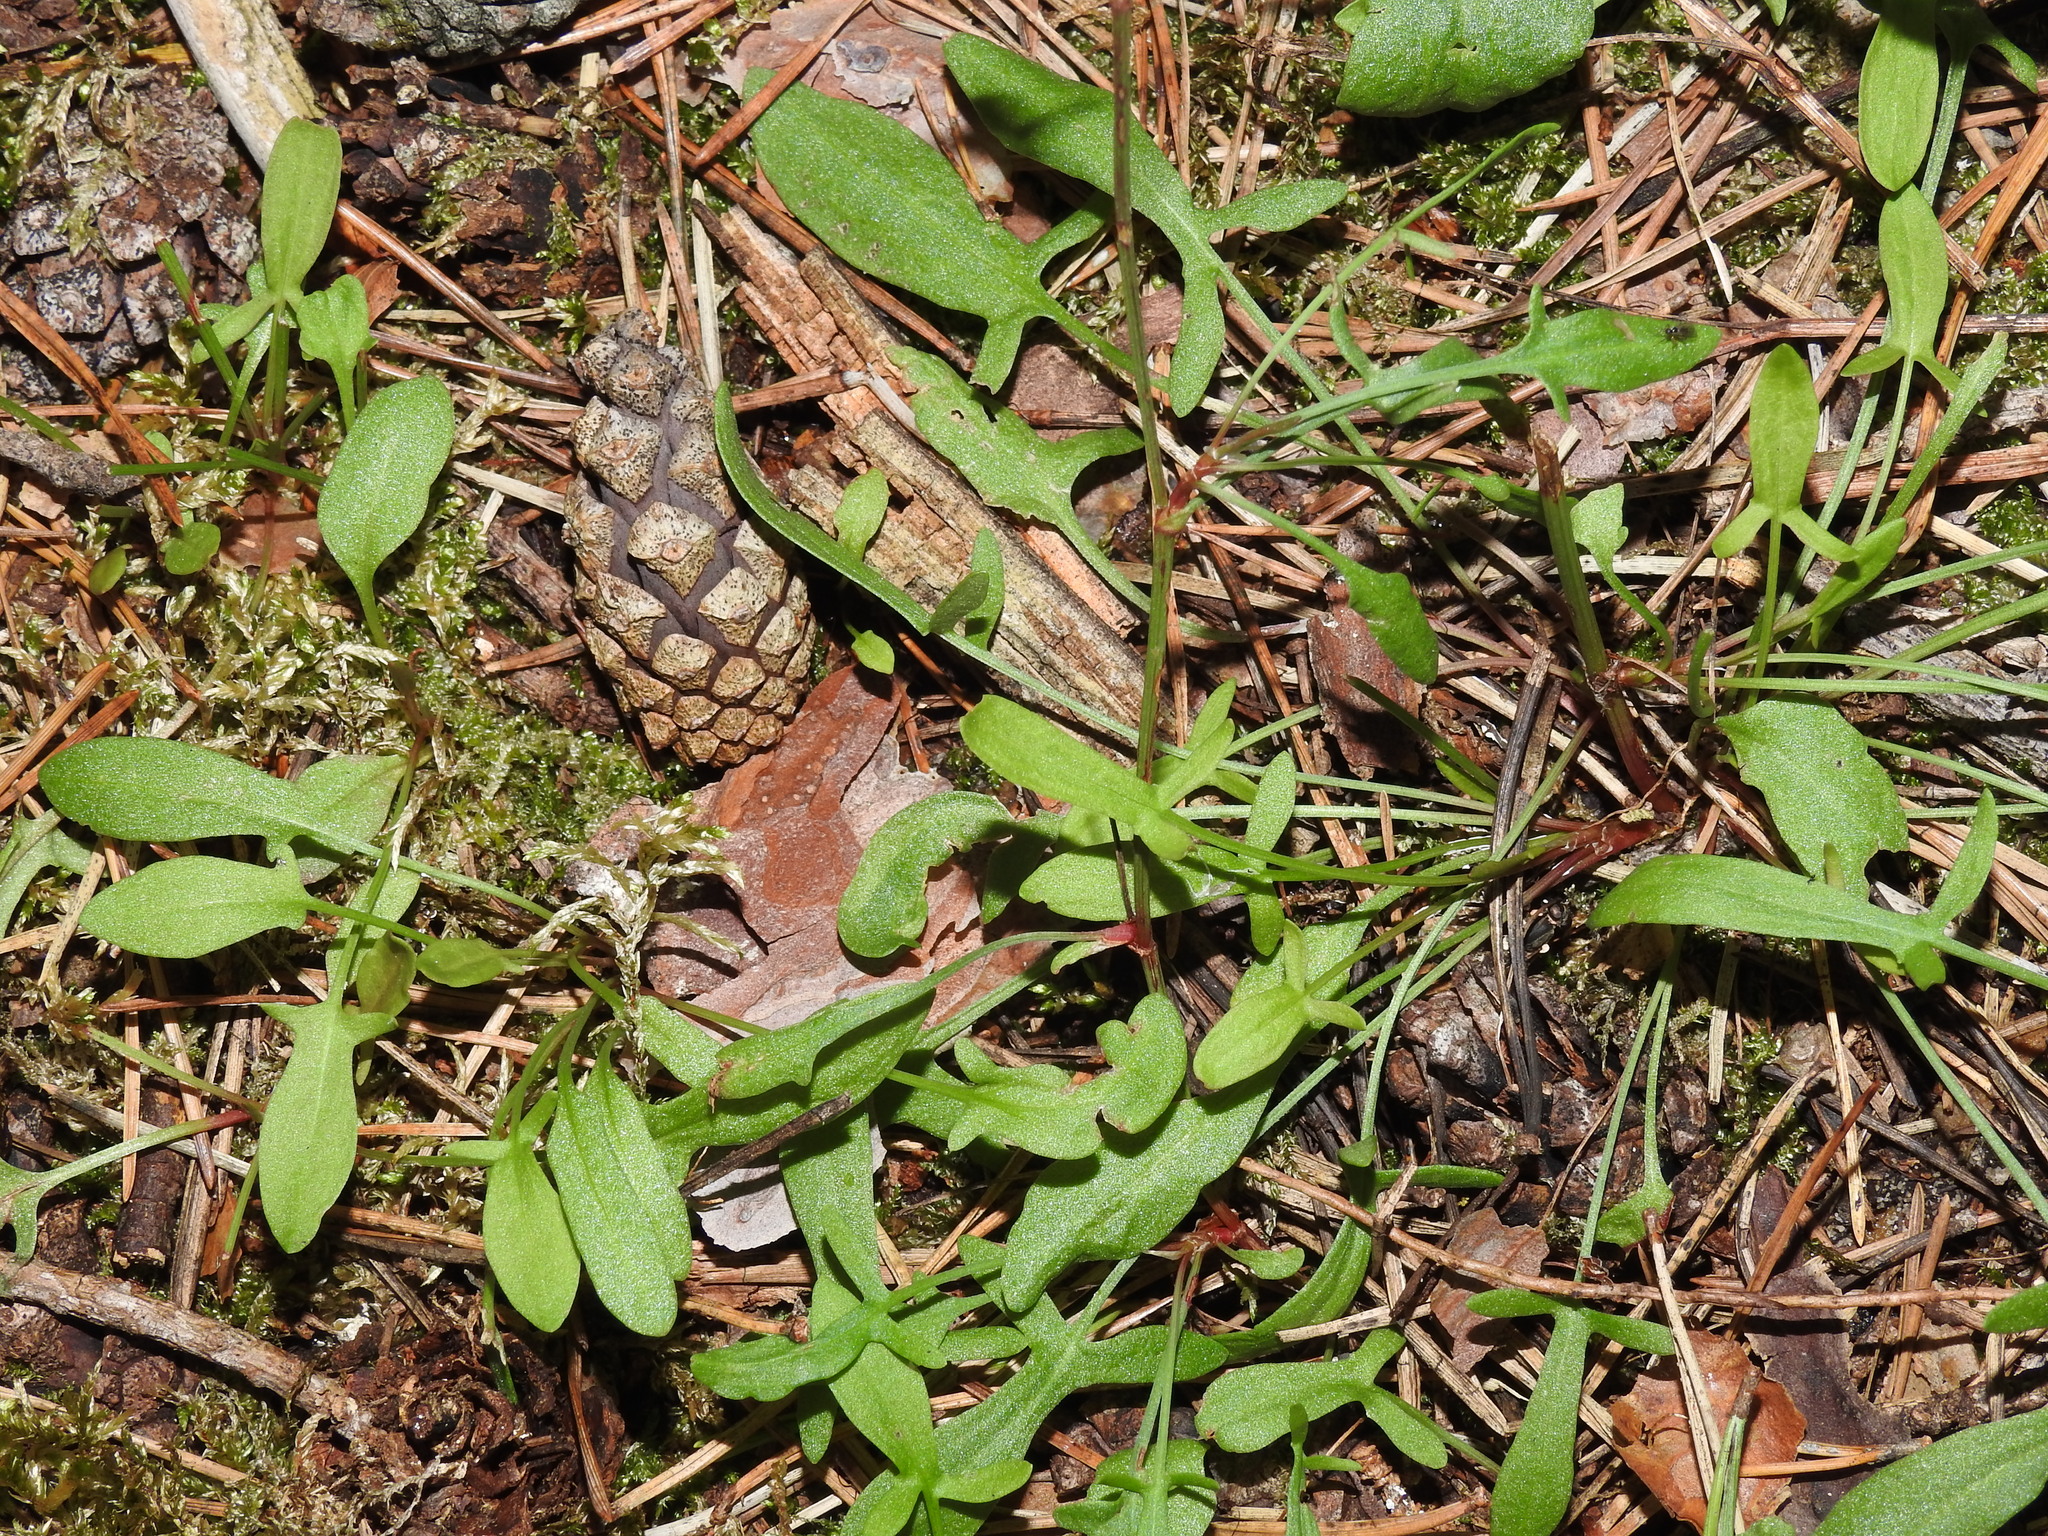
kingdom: Plantae
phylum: Tracheophyta
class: Magnoliopsida
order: Caryophyllales
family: Polygonaceae
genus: Rumex
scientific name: Rumex acetosella
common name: Common sheep sorrel
